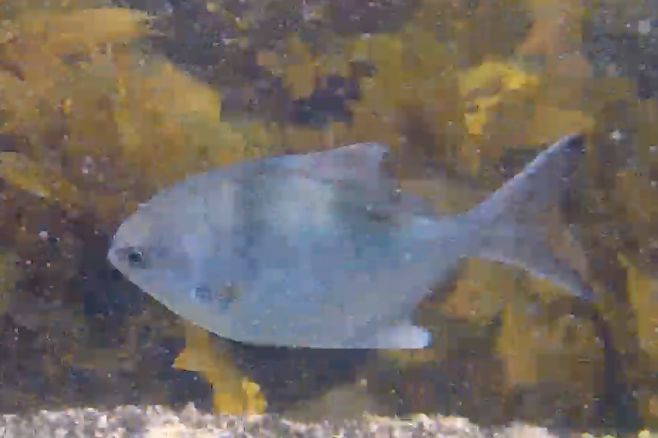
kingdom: Animalia
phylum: Chordata
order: Perciformes
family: Kyphosidae
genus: Scorpis
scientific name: Scorpis aequipinnis
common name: Sea sweep
